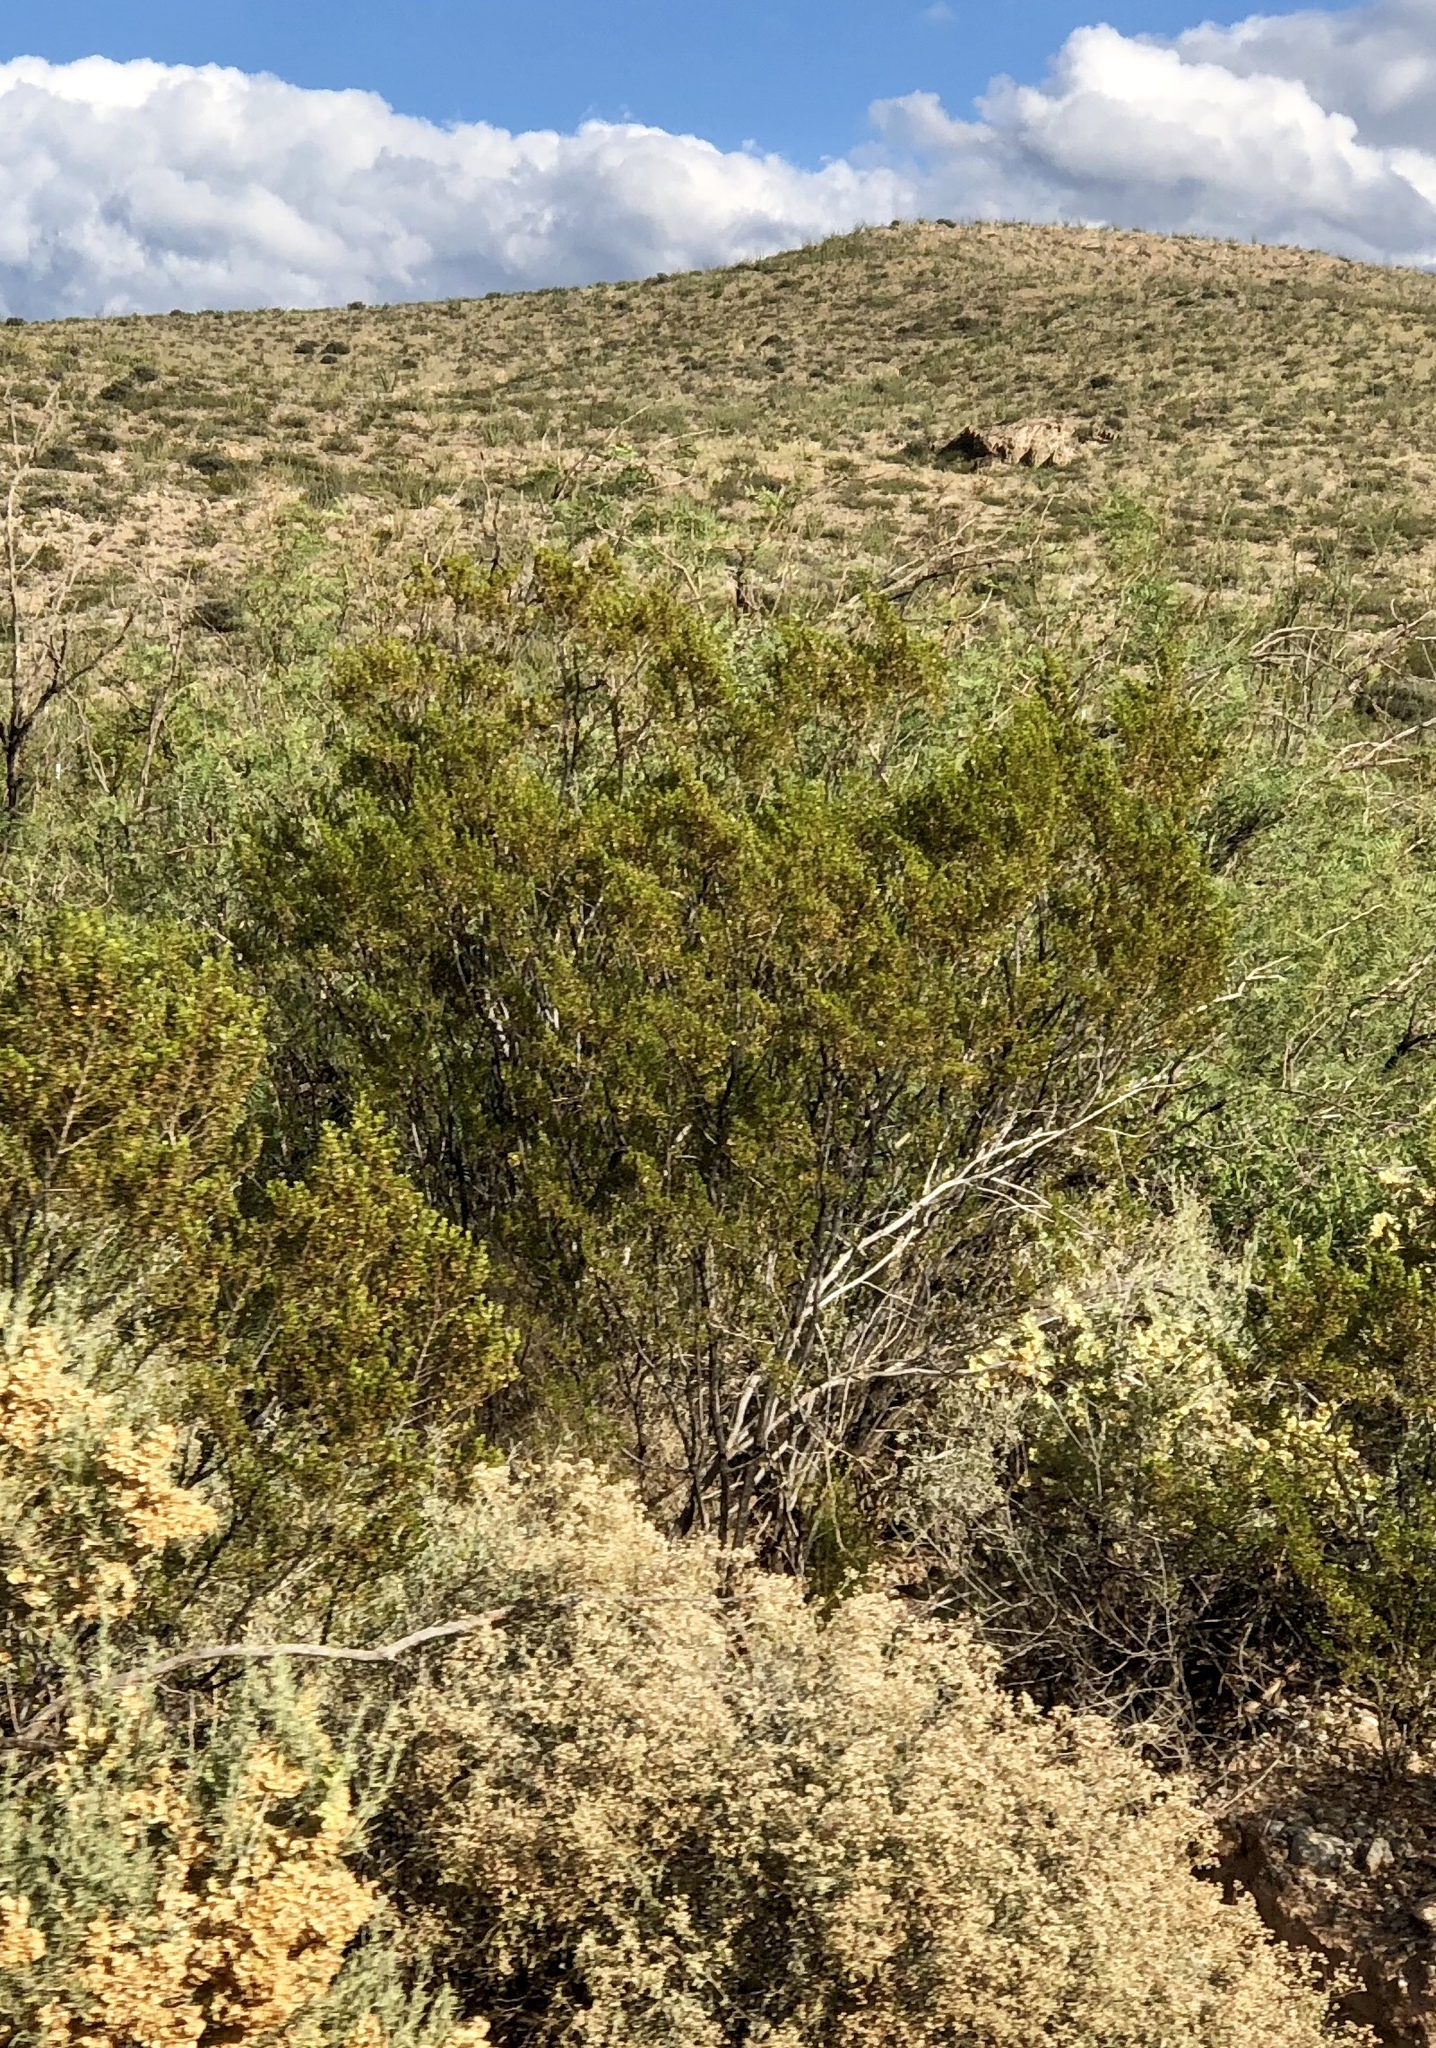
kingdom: Plantae
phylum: Tracheophyta
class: Magnoliopsida
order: Zygophyllales
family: Zygophyllaceae
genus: Larrea
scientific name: Larrea tridentata
